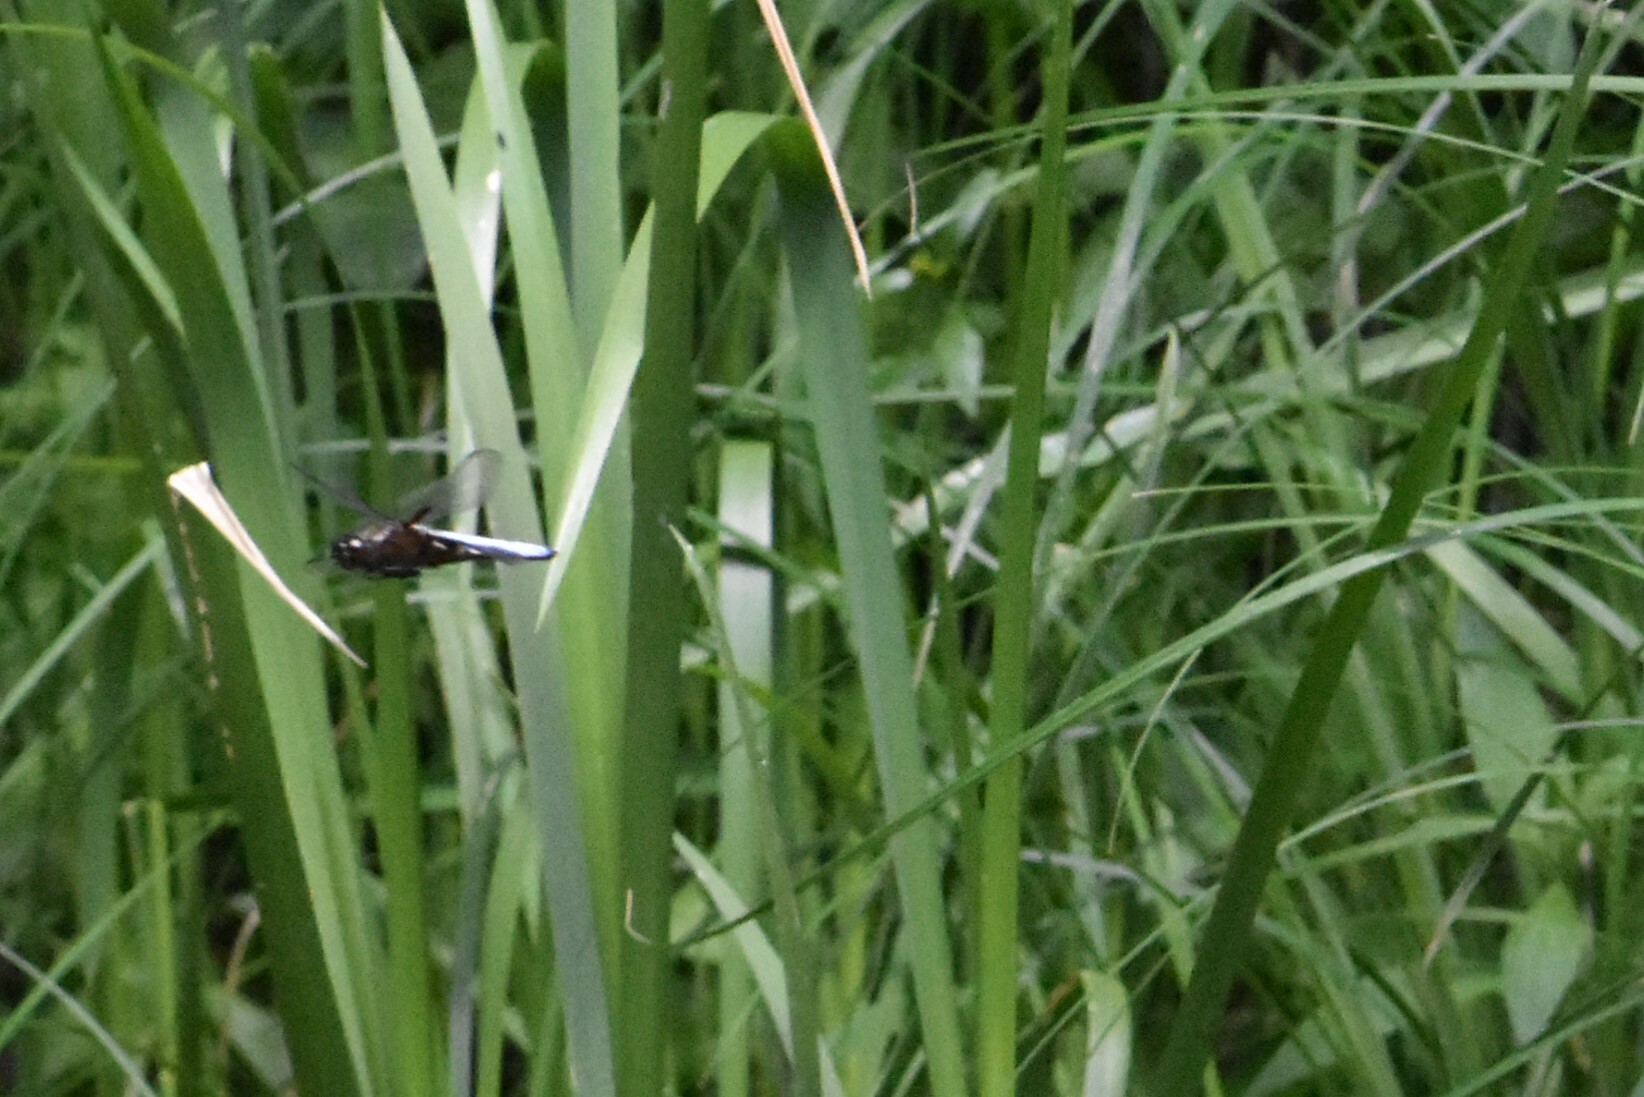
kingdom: Animalia
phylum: Arthropoda
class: Insecta
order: Odonata
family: Libellulidae
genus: Libellula
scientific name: Libellula depressa
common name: Broad-bodied chaser
